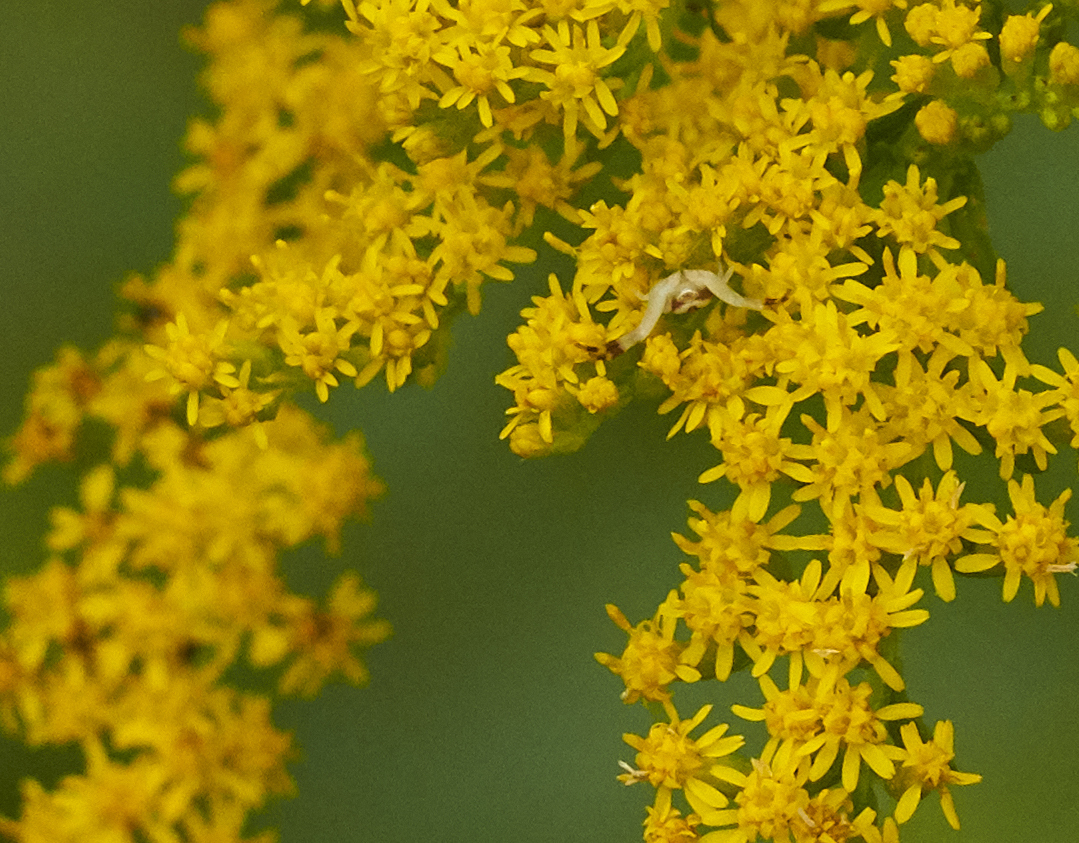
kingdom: Animalia
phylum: Arthropoda
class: Arachnida
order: Araneae
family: Thomisidae
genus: Misumena
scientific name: Misumena vatia
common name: Goldenrod crab spider
